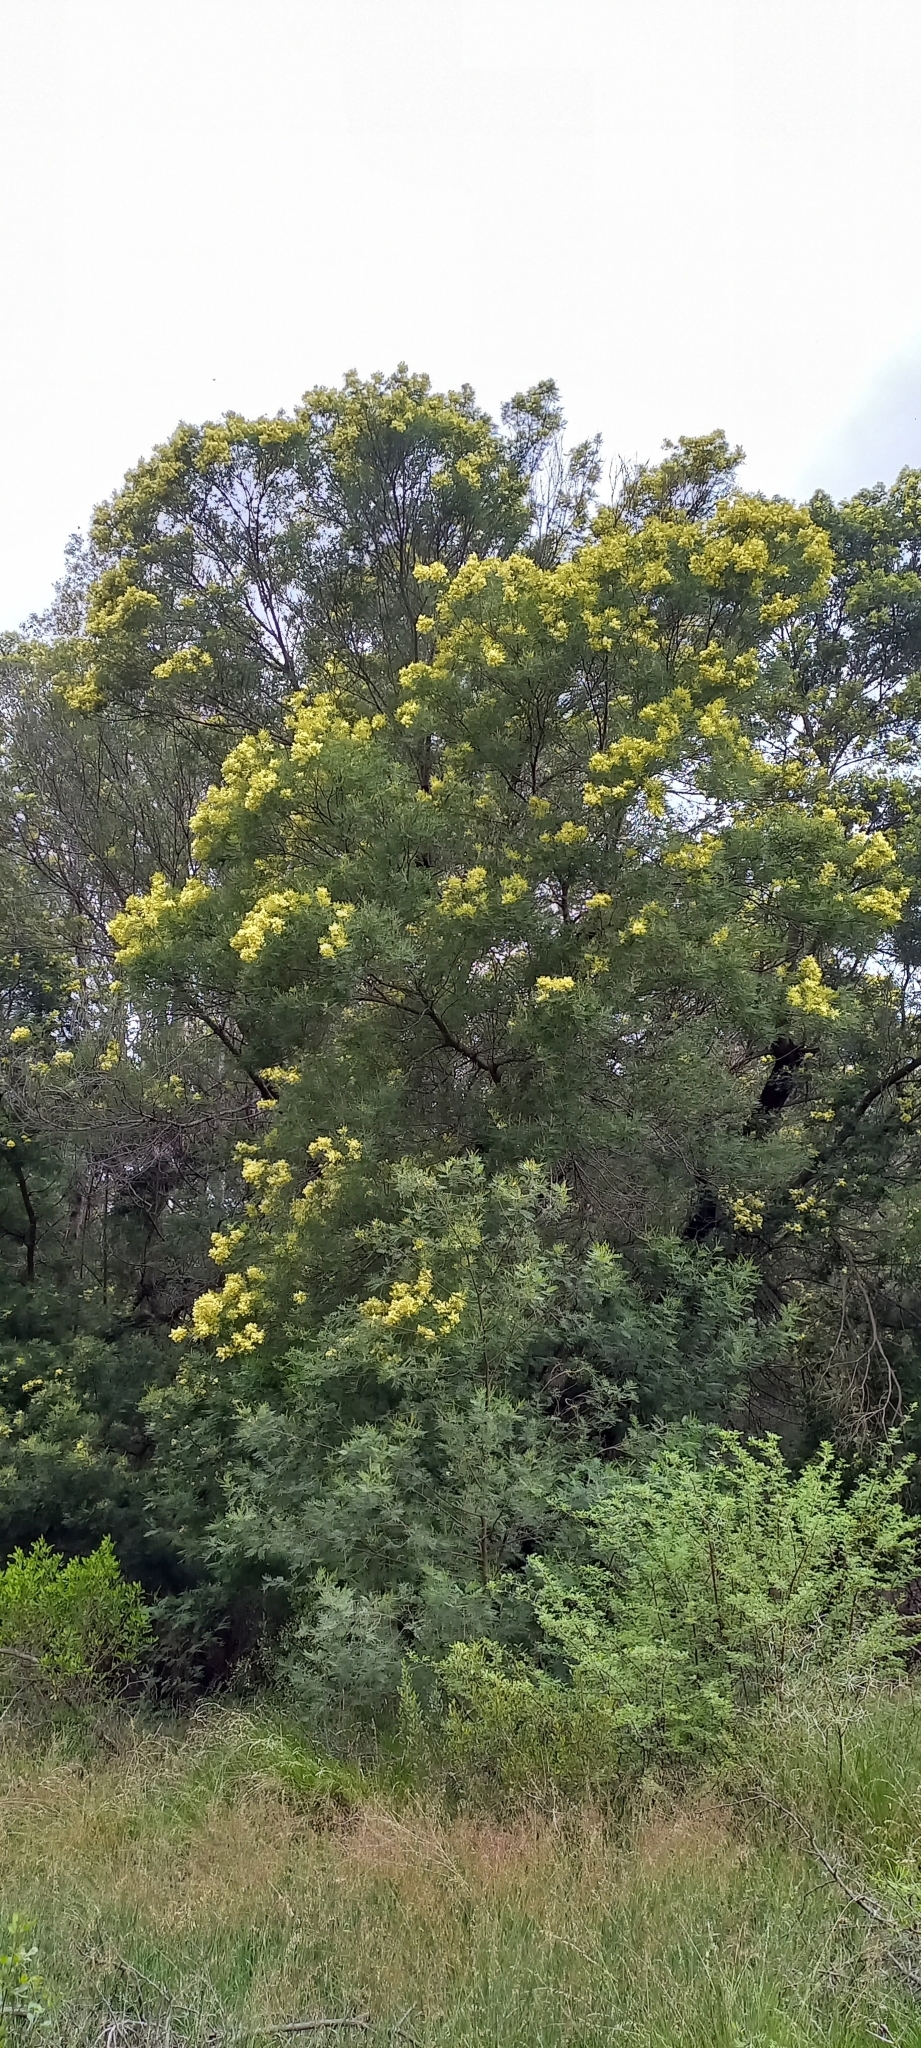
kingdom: Plantae
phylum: Tracheophyta
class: Magnoliopsida
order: Fabales
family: Fabaceae
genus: Acacia
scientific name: Acacia mearnsii
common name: Black wattle
